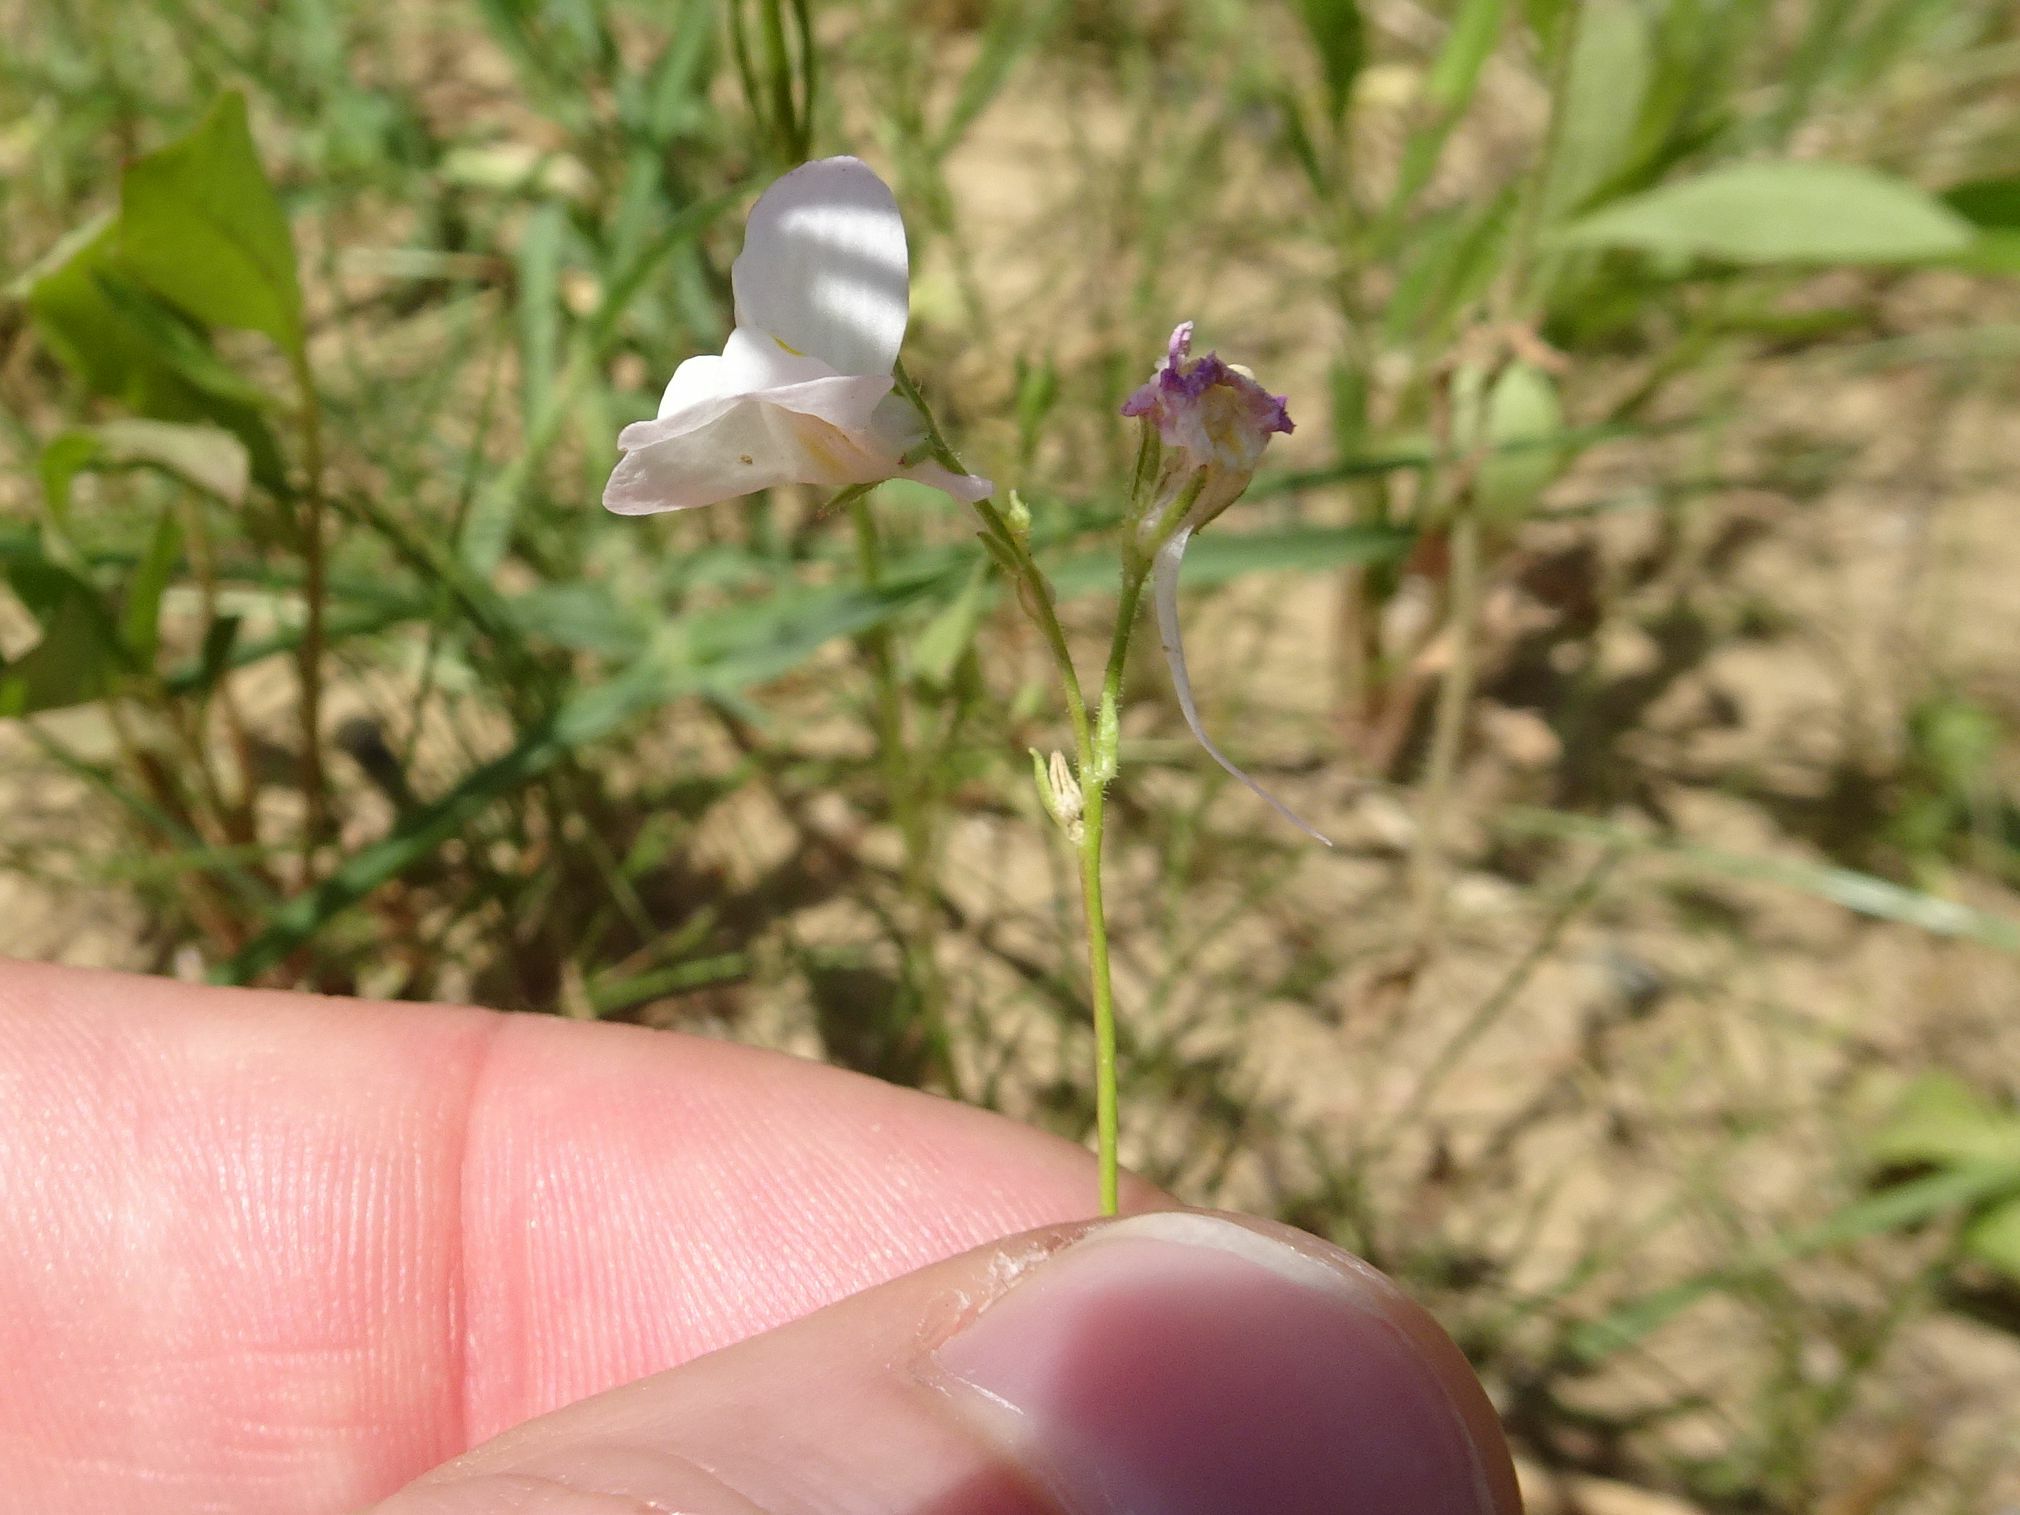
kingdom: Plantae
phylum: Tracheophyta
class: Magnoliopsida
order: Lamiales
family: Plantaginaceae
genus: Linaria
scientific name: Linaria maroccana
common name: Moroccan toadflax
